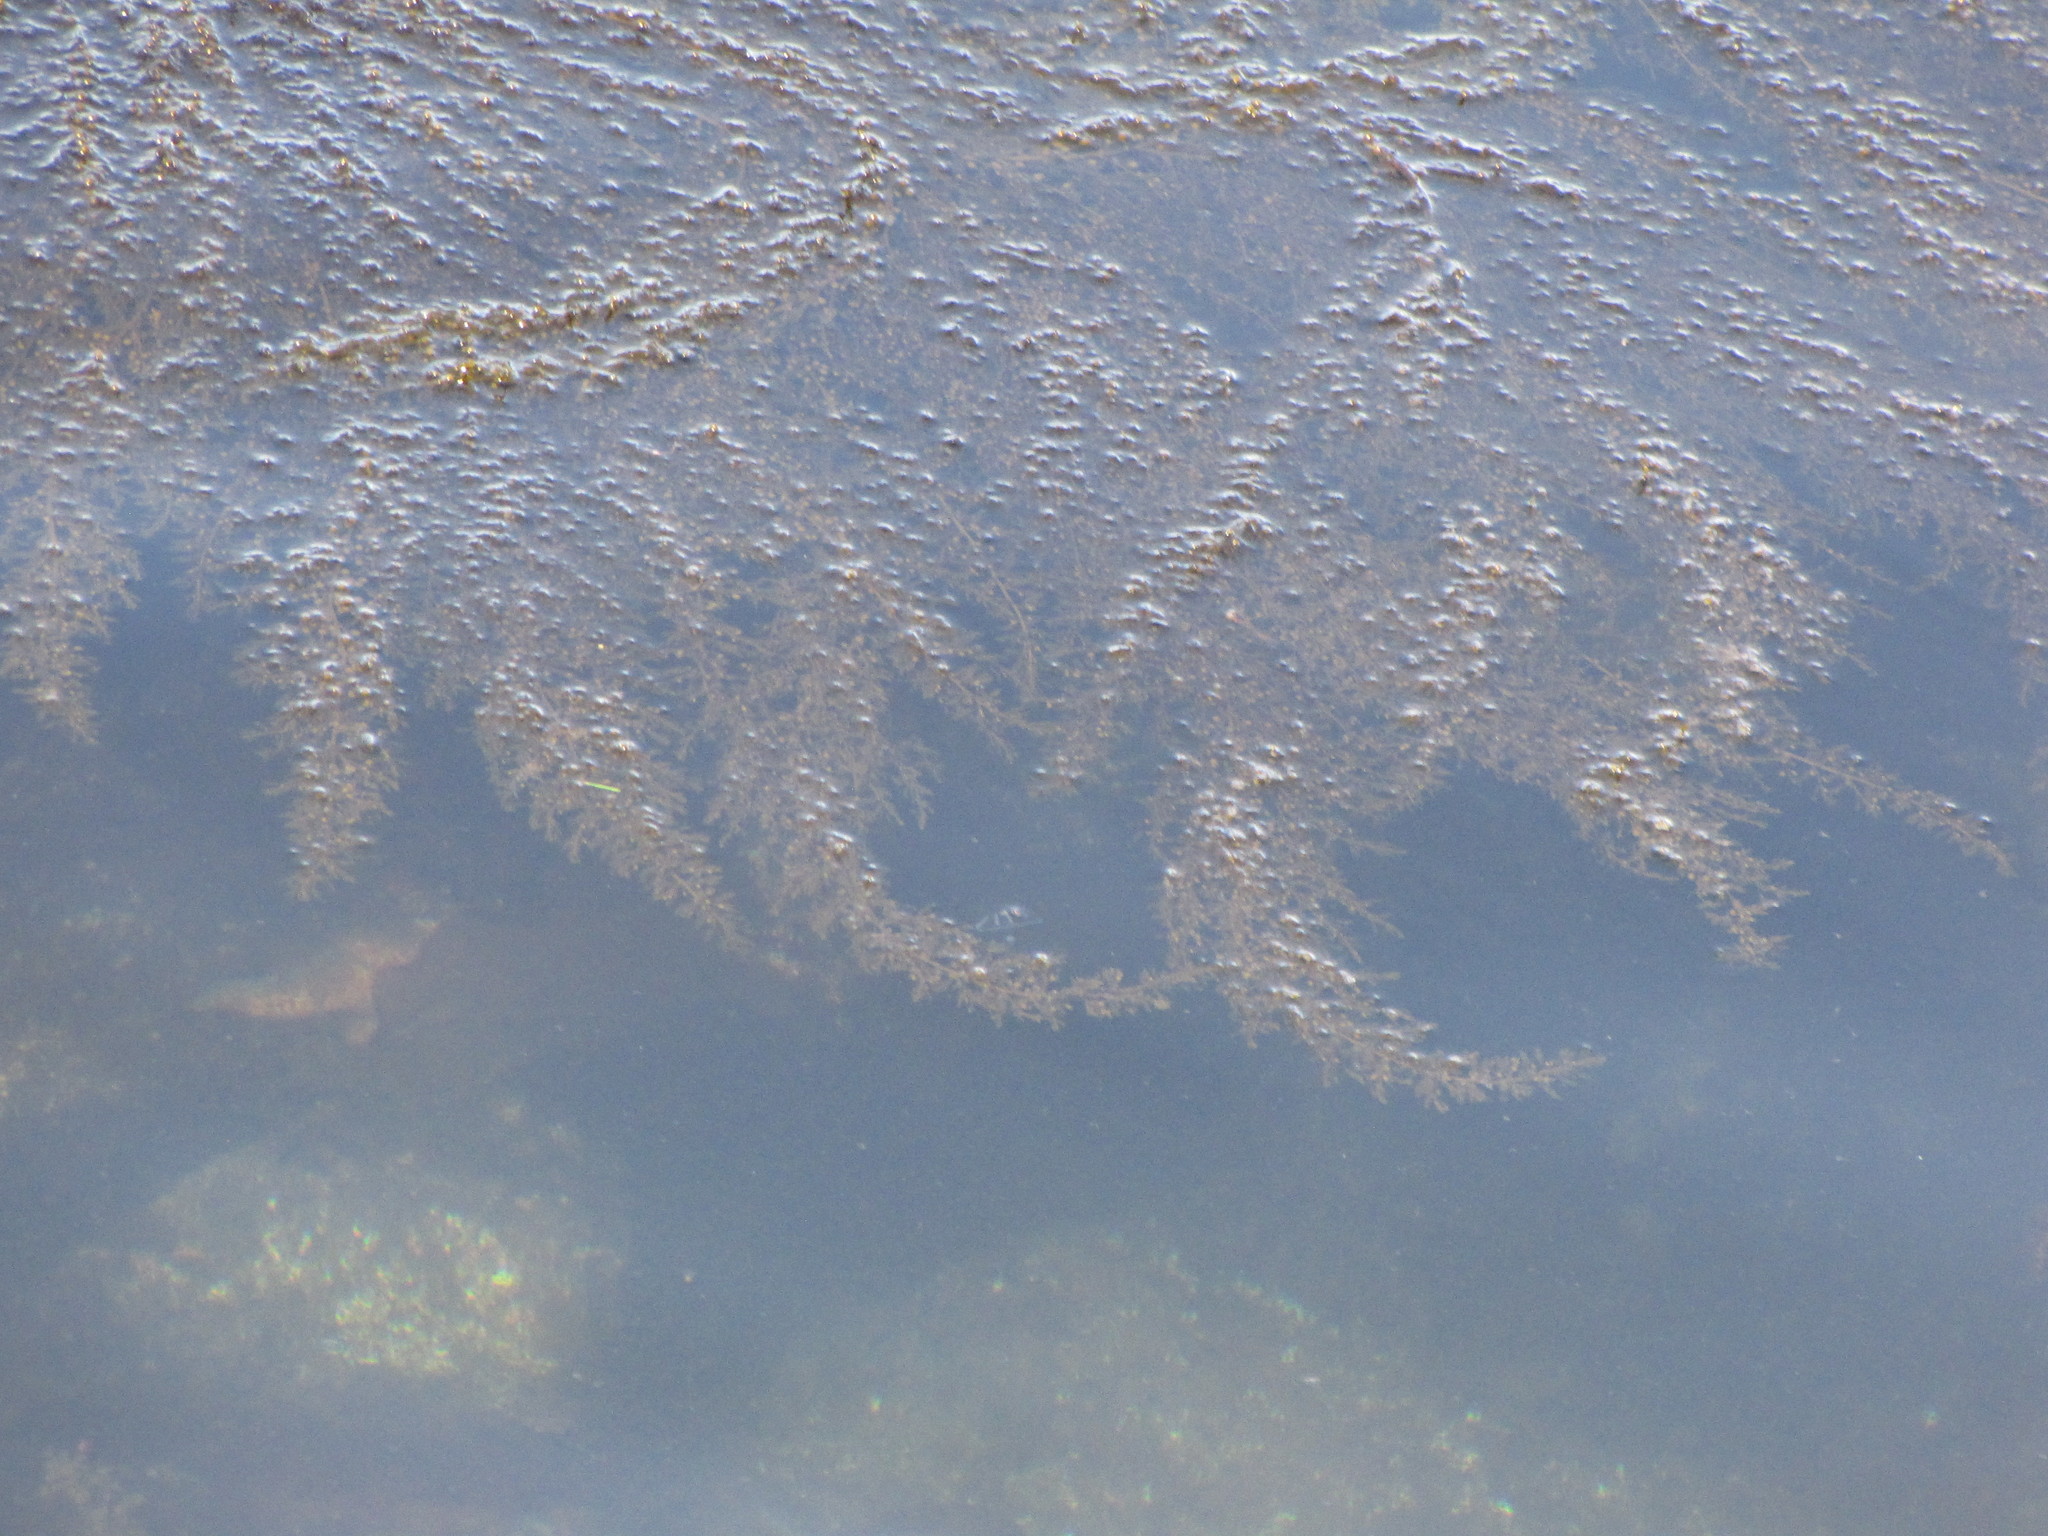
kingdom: Chromista
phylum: Ochrophyta
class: Phaeophyceae
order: Fucales
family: Sargassaceae
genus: Sargassum
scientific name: Sargassum muticum
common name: Japweed
